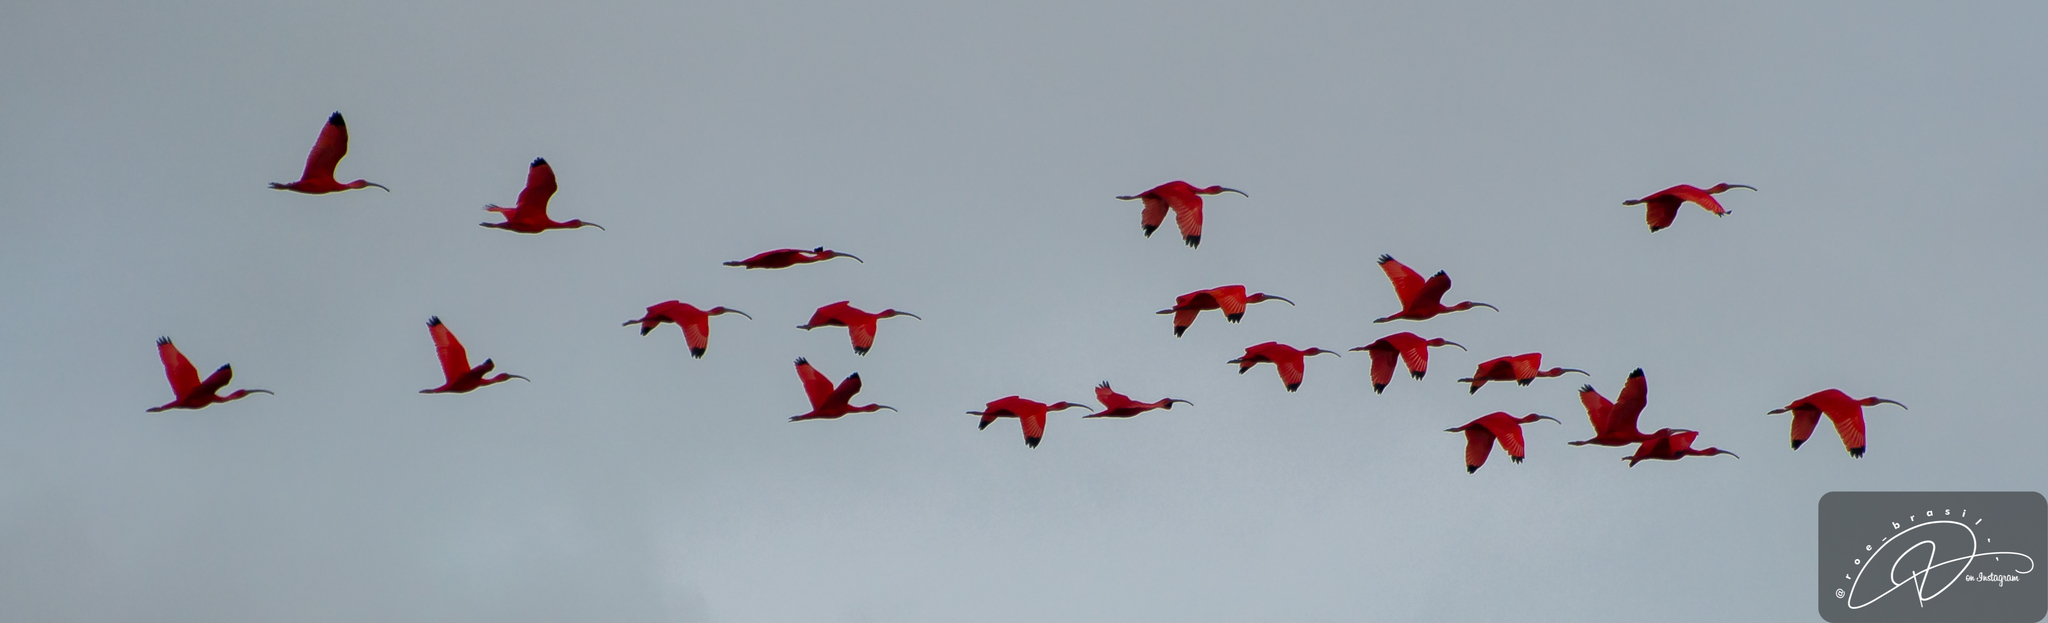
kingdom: Animalia
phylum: Chordata
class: Aves
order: Pelecaniformes
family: Threskiornithidae
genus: Eudocimus
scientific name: Eudocimus ruber
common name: Scarlet ibis
